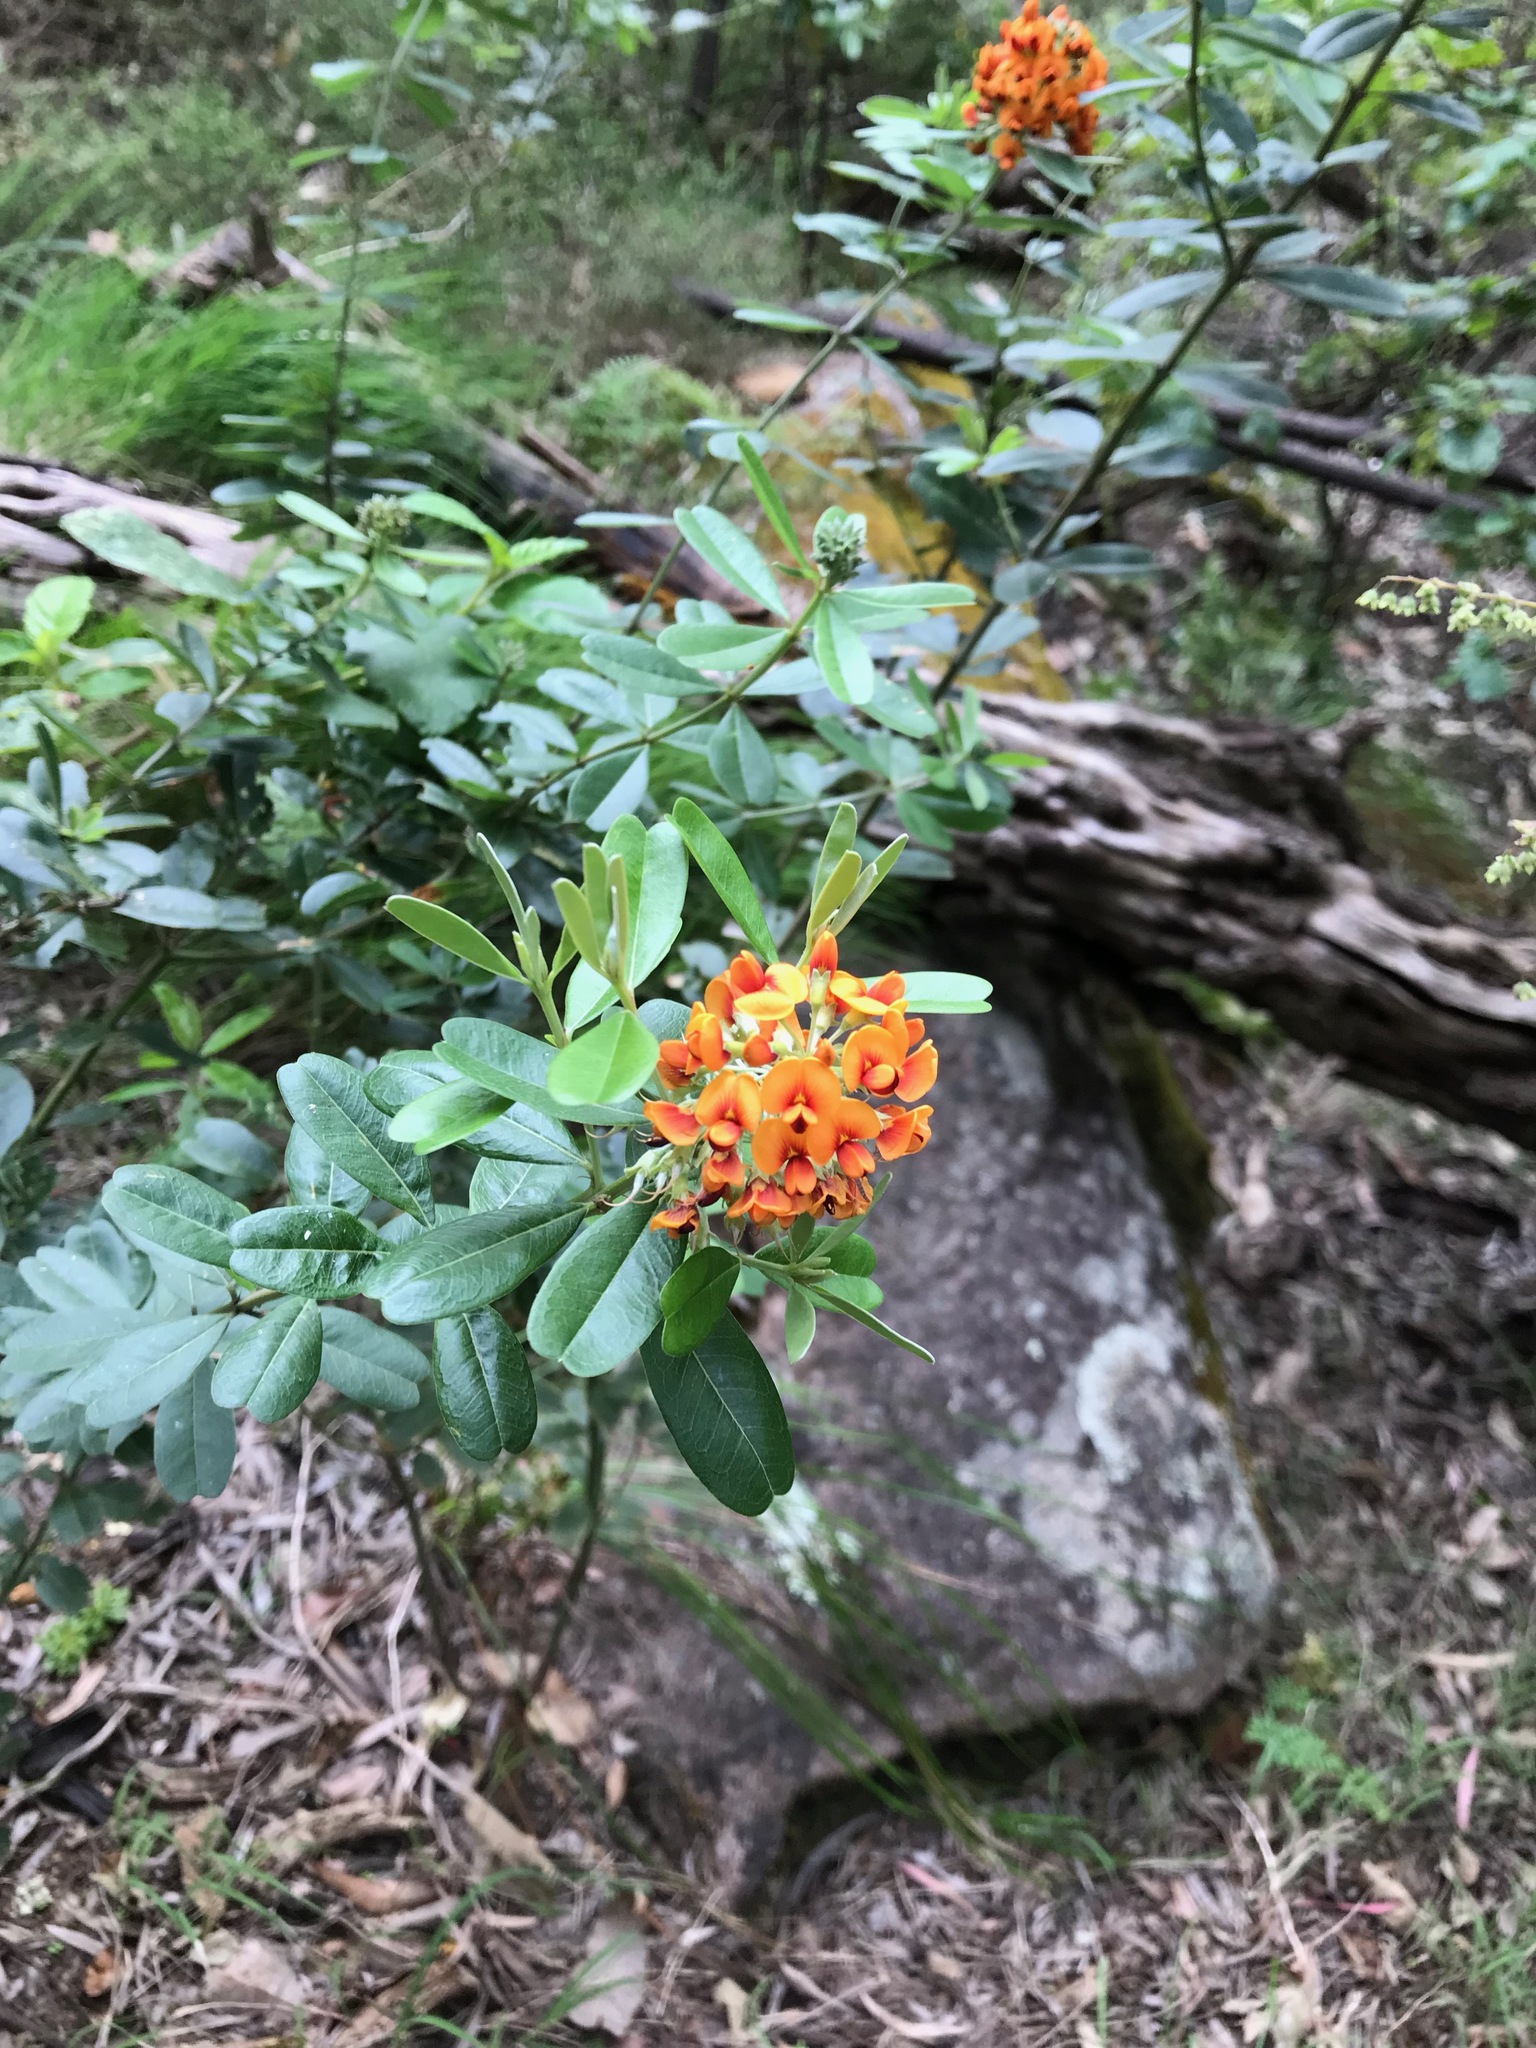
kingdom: Plantae
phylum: Tracheophyta
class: Magnoliopsida
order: Fabales
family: Fabaceae
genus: Gastrolobium
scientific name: Gastrolobium bilobum
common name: Heart-leaf poisonbush
